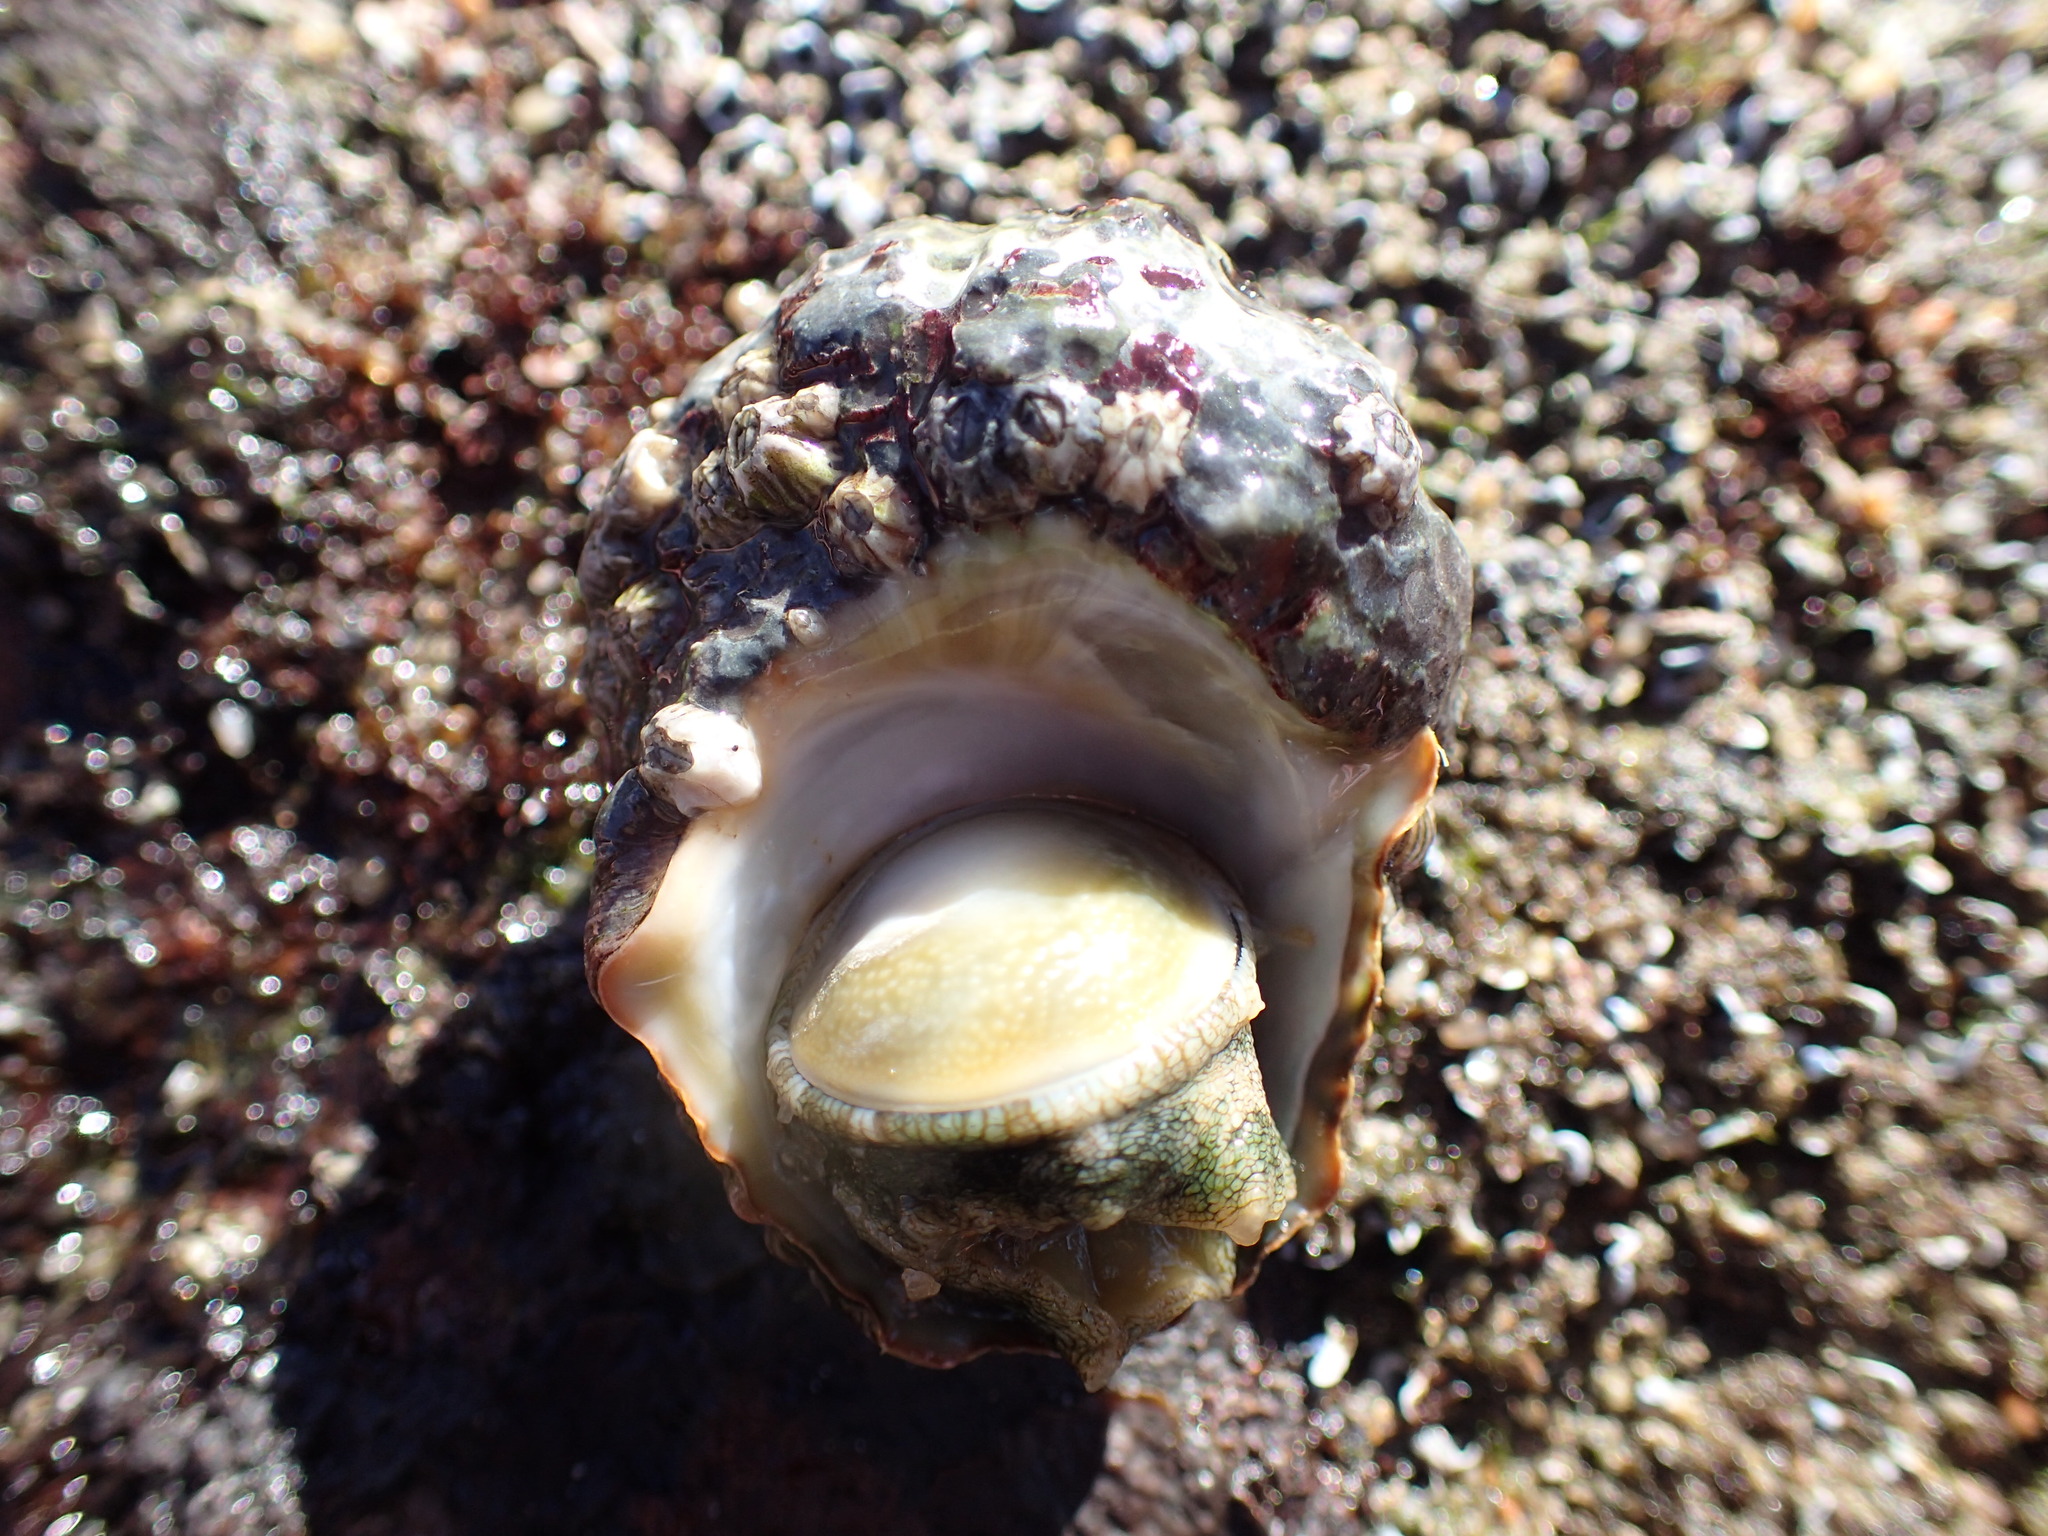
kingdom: Animalia
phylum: Mollusca
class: Gastropoda
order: Trochida
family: Turbinidae
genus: Lunella
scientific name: Lunella coronata
